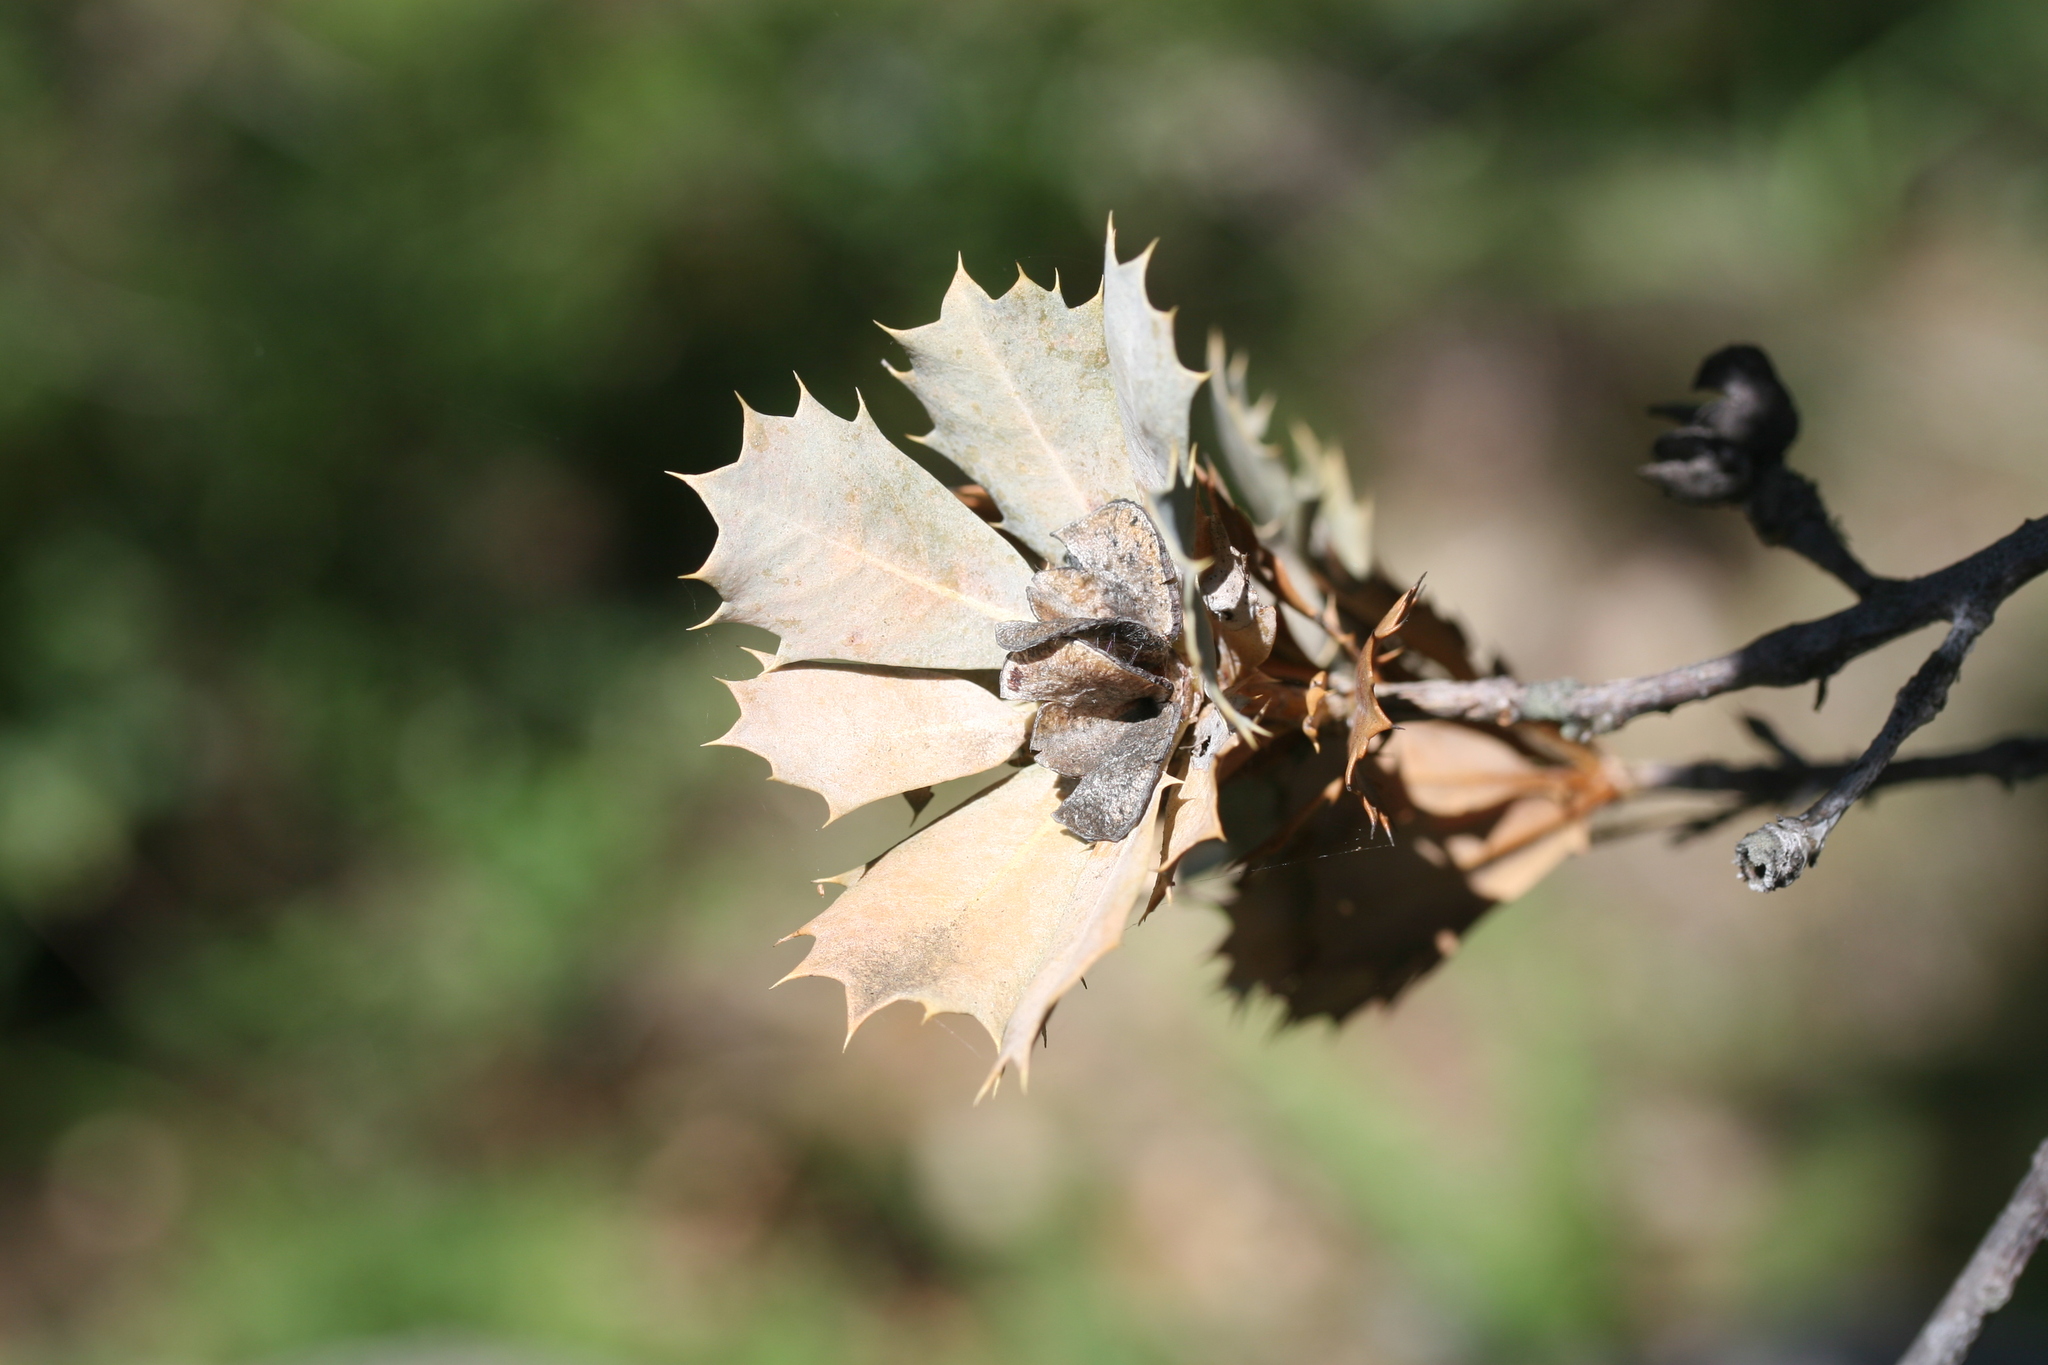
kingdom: Plantae
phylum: Tracheophyta
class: Magnoliopsida
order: Proteales
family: Proteaceae
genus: Banksia
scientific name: Banksia sessilis
